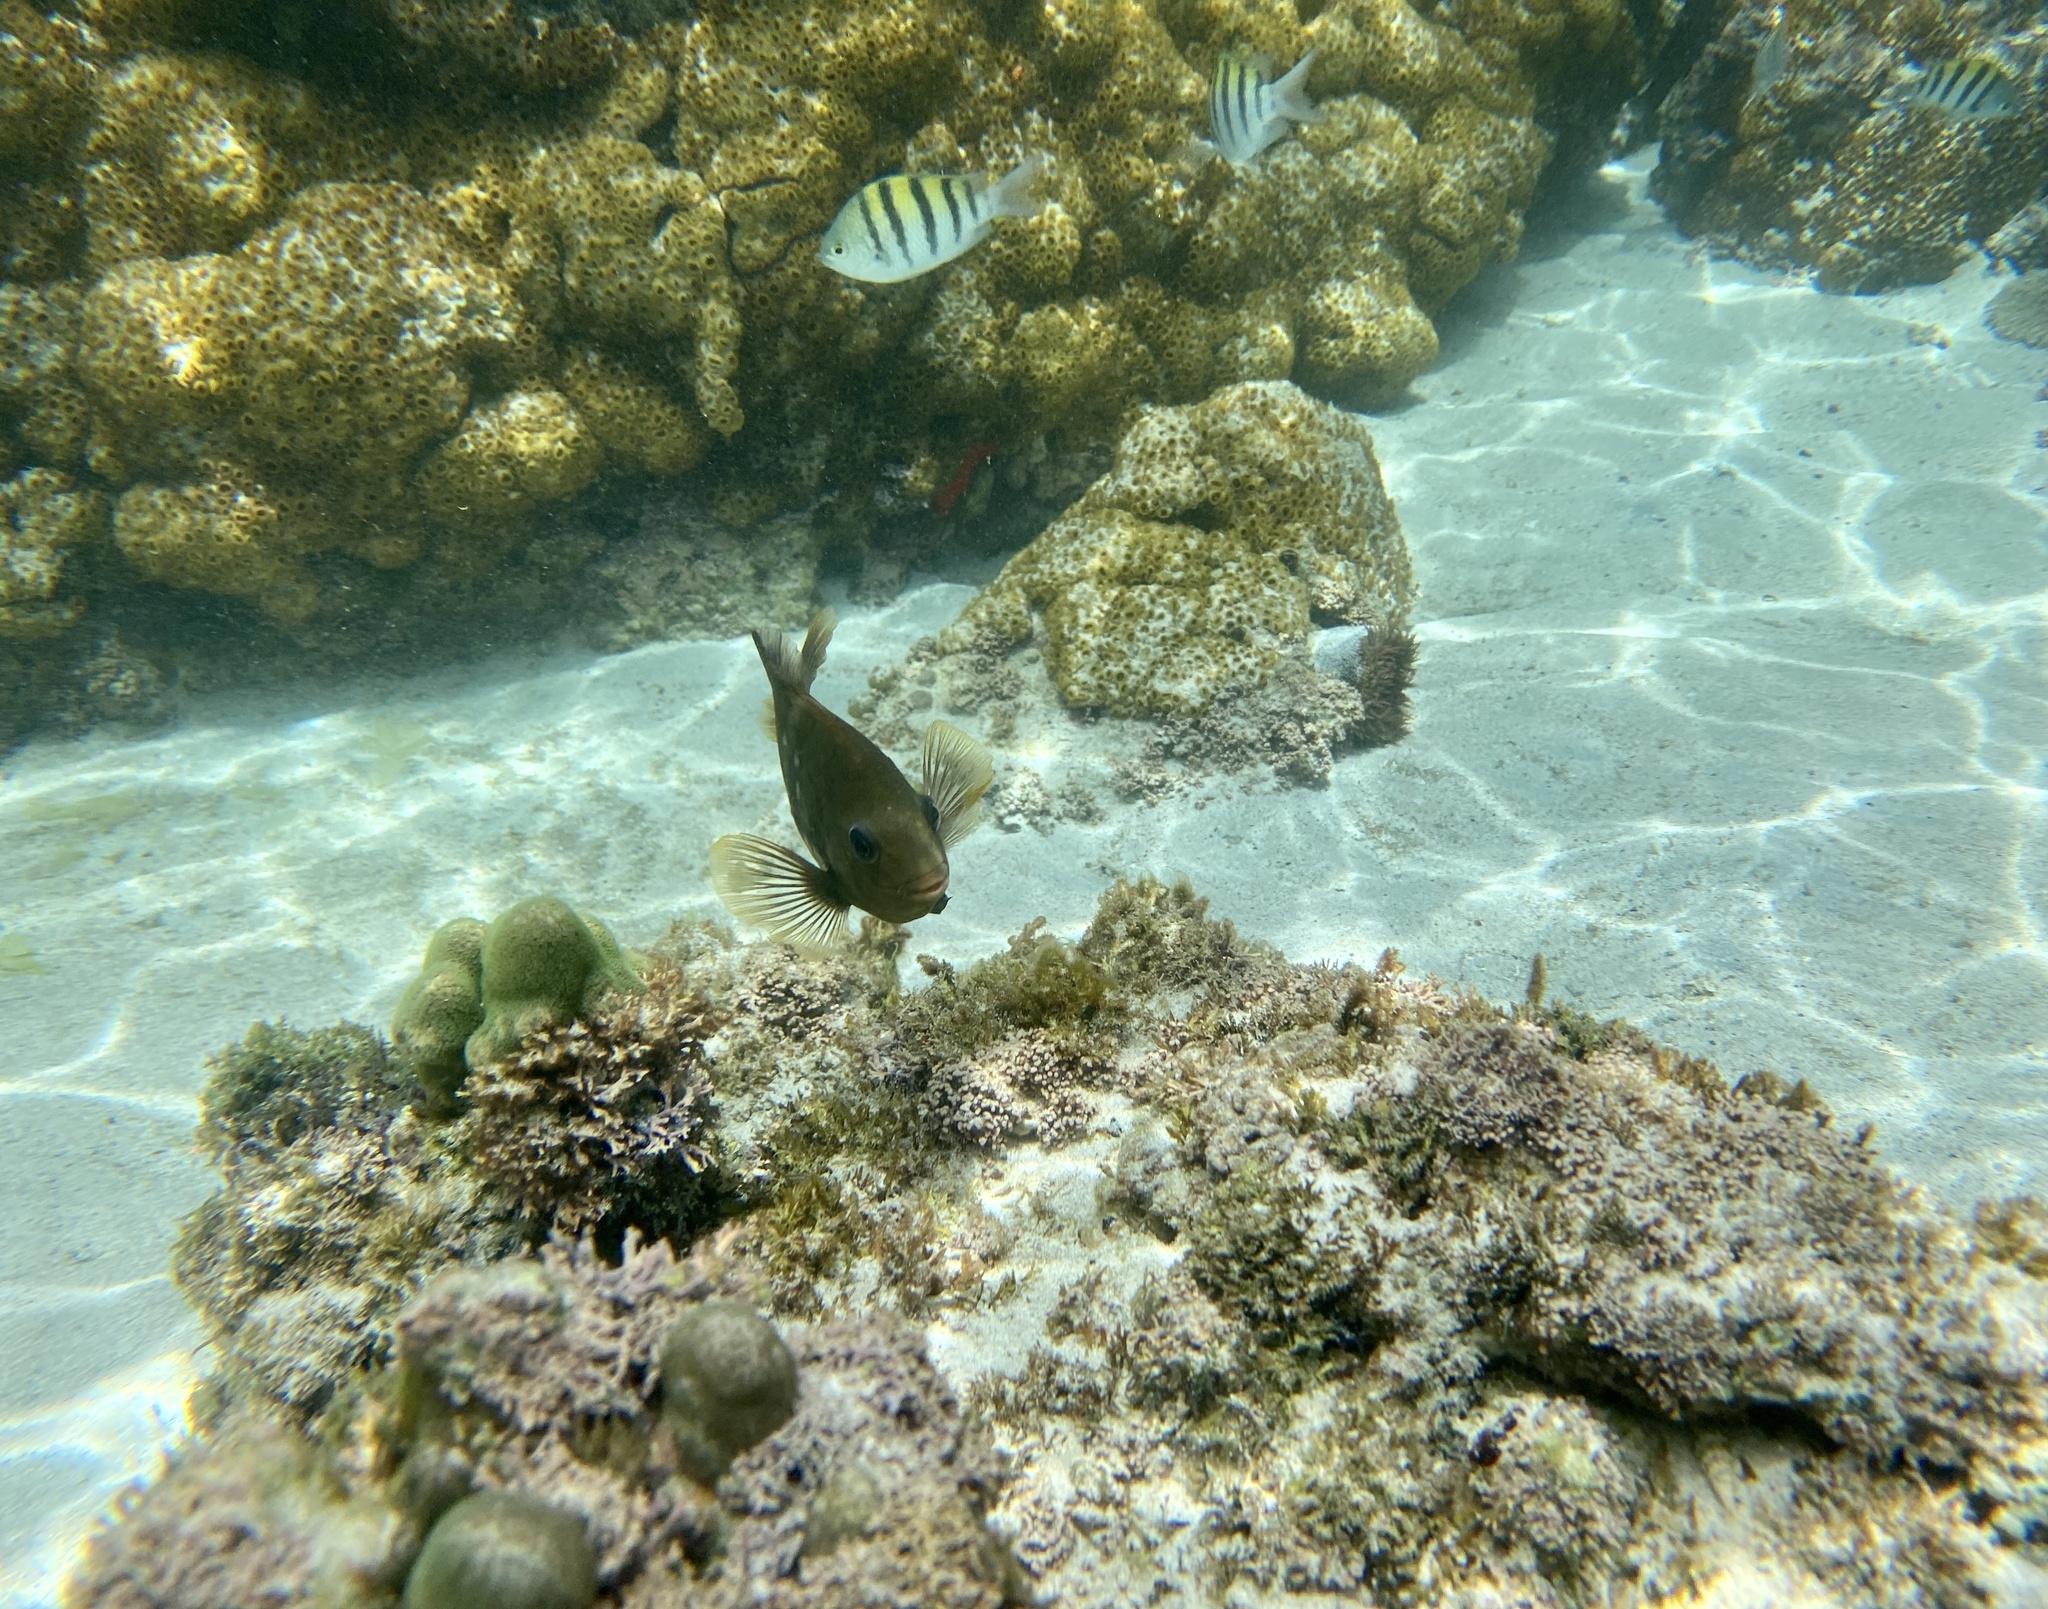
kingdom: Animalia
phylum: Chordata
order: Perciformes
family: Pomacentridae
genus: Stegastes
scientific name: Stegastes rectifraenum
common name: Cortez damselfish
